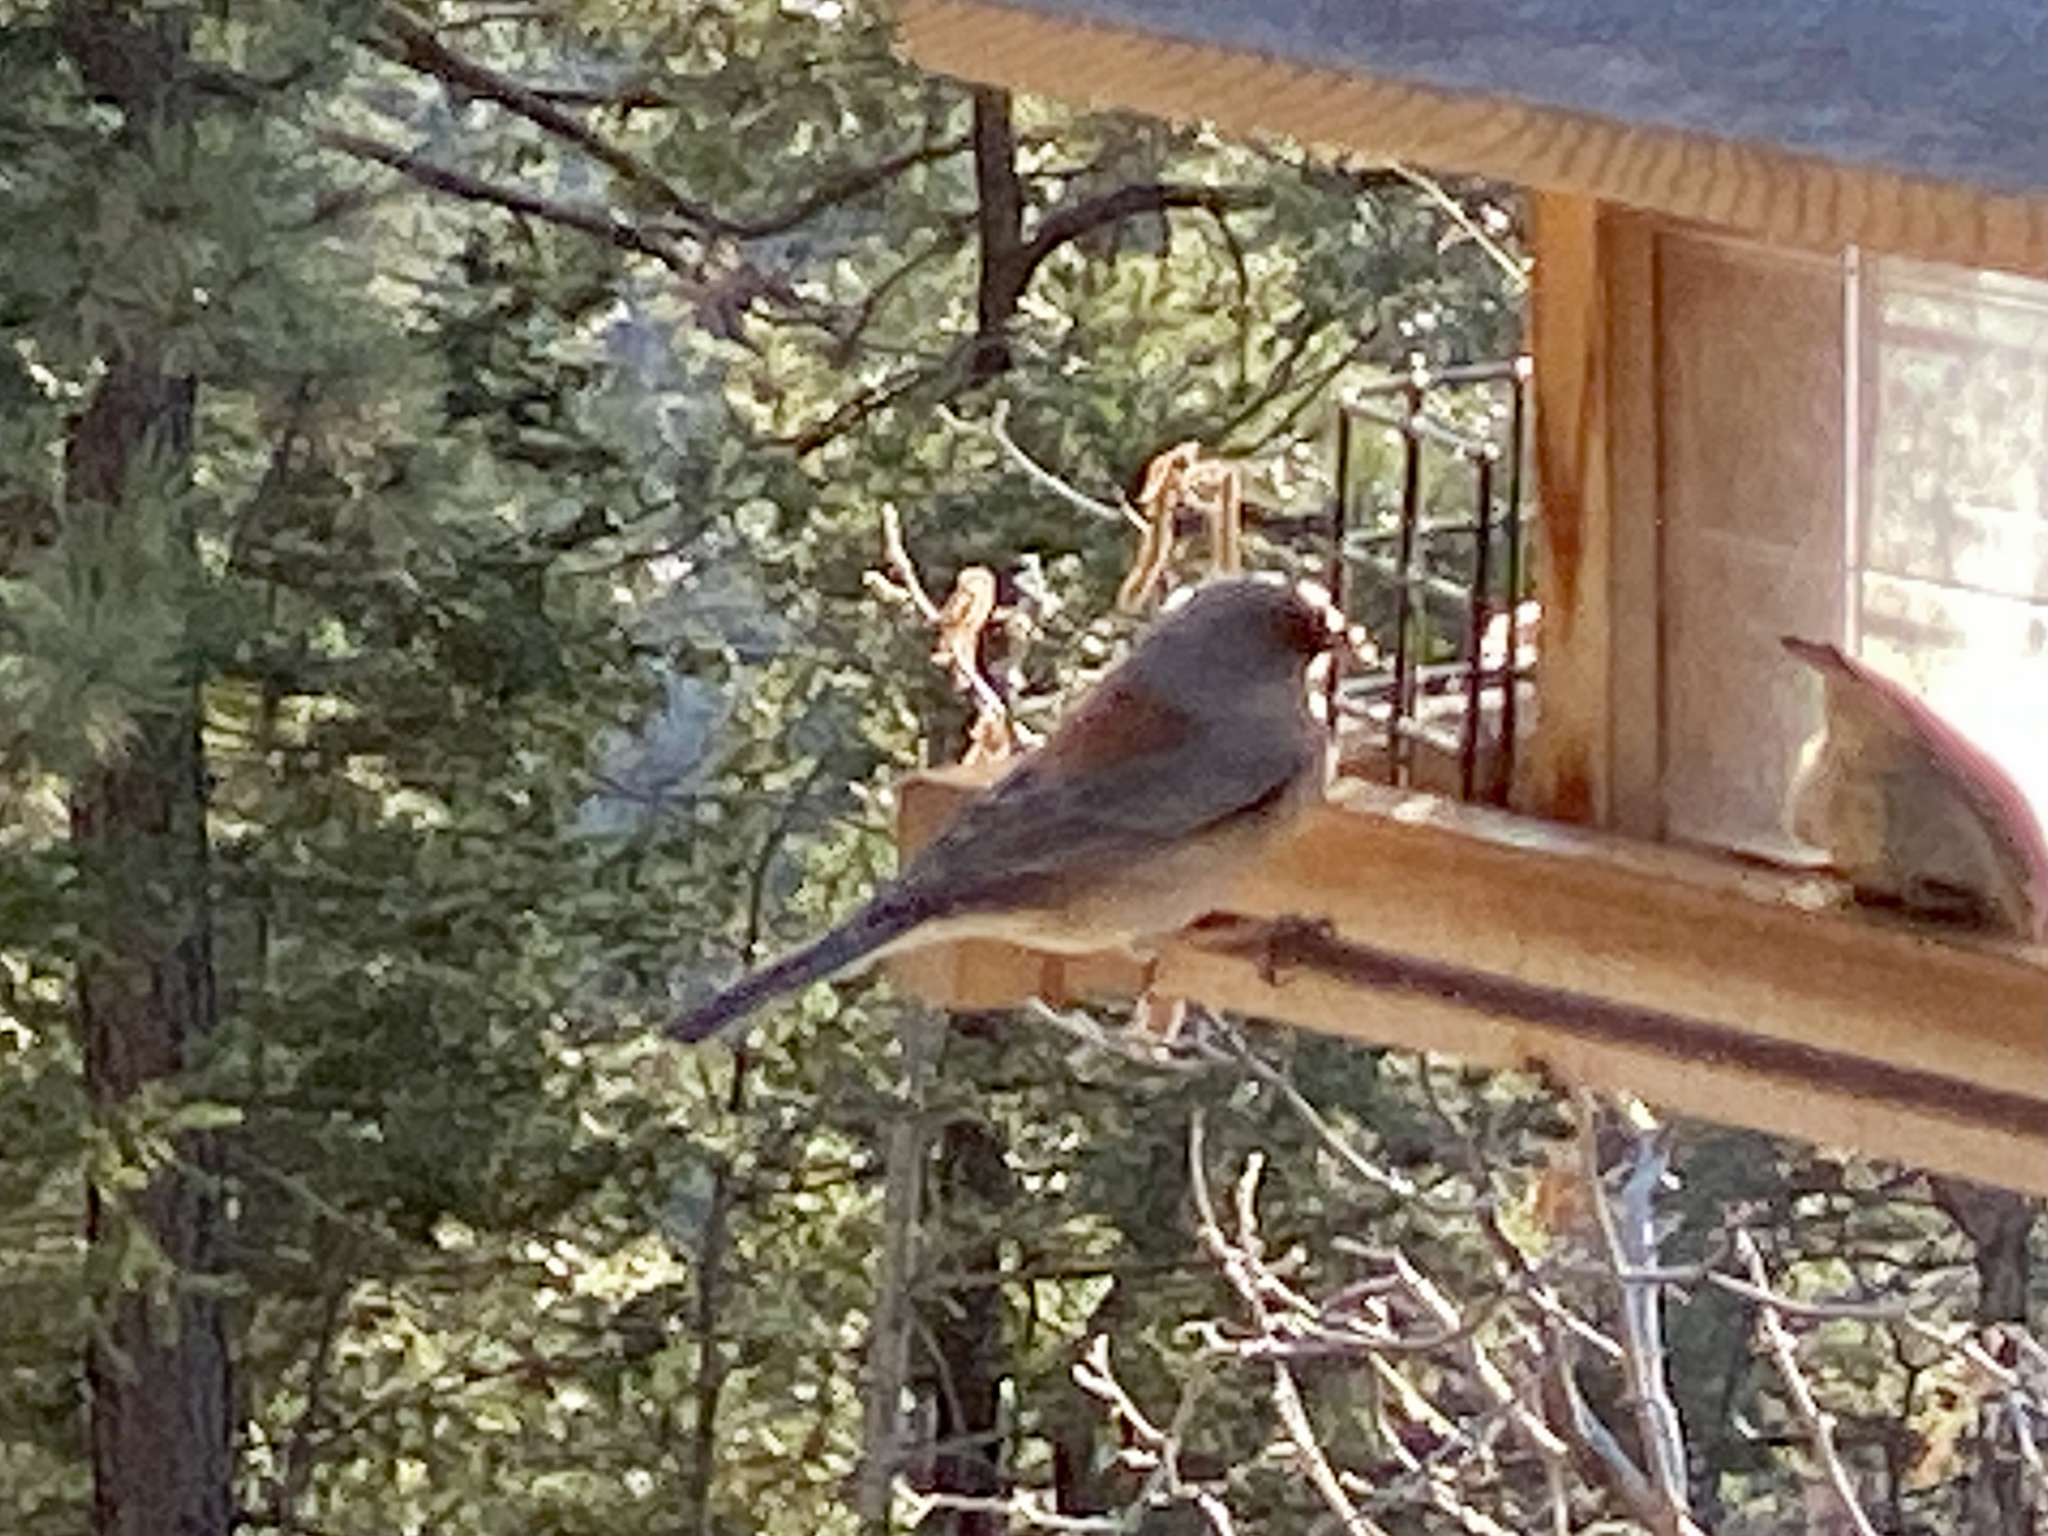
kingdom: Animalia
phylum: Chordata
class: Aves
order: Passeriformes
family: Passerellidae
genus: Junco
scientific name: Junco hyemalis
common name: Dark-eyed junco
